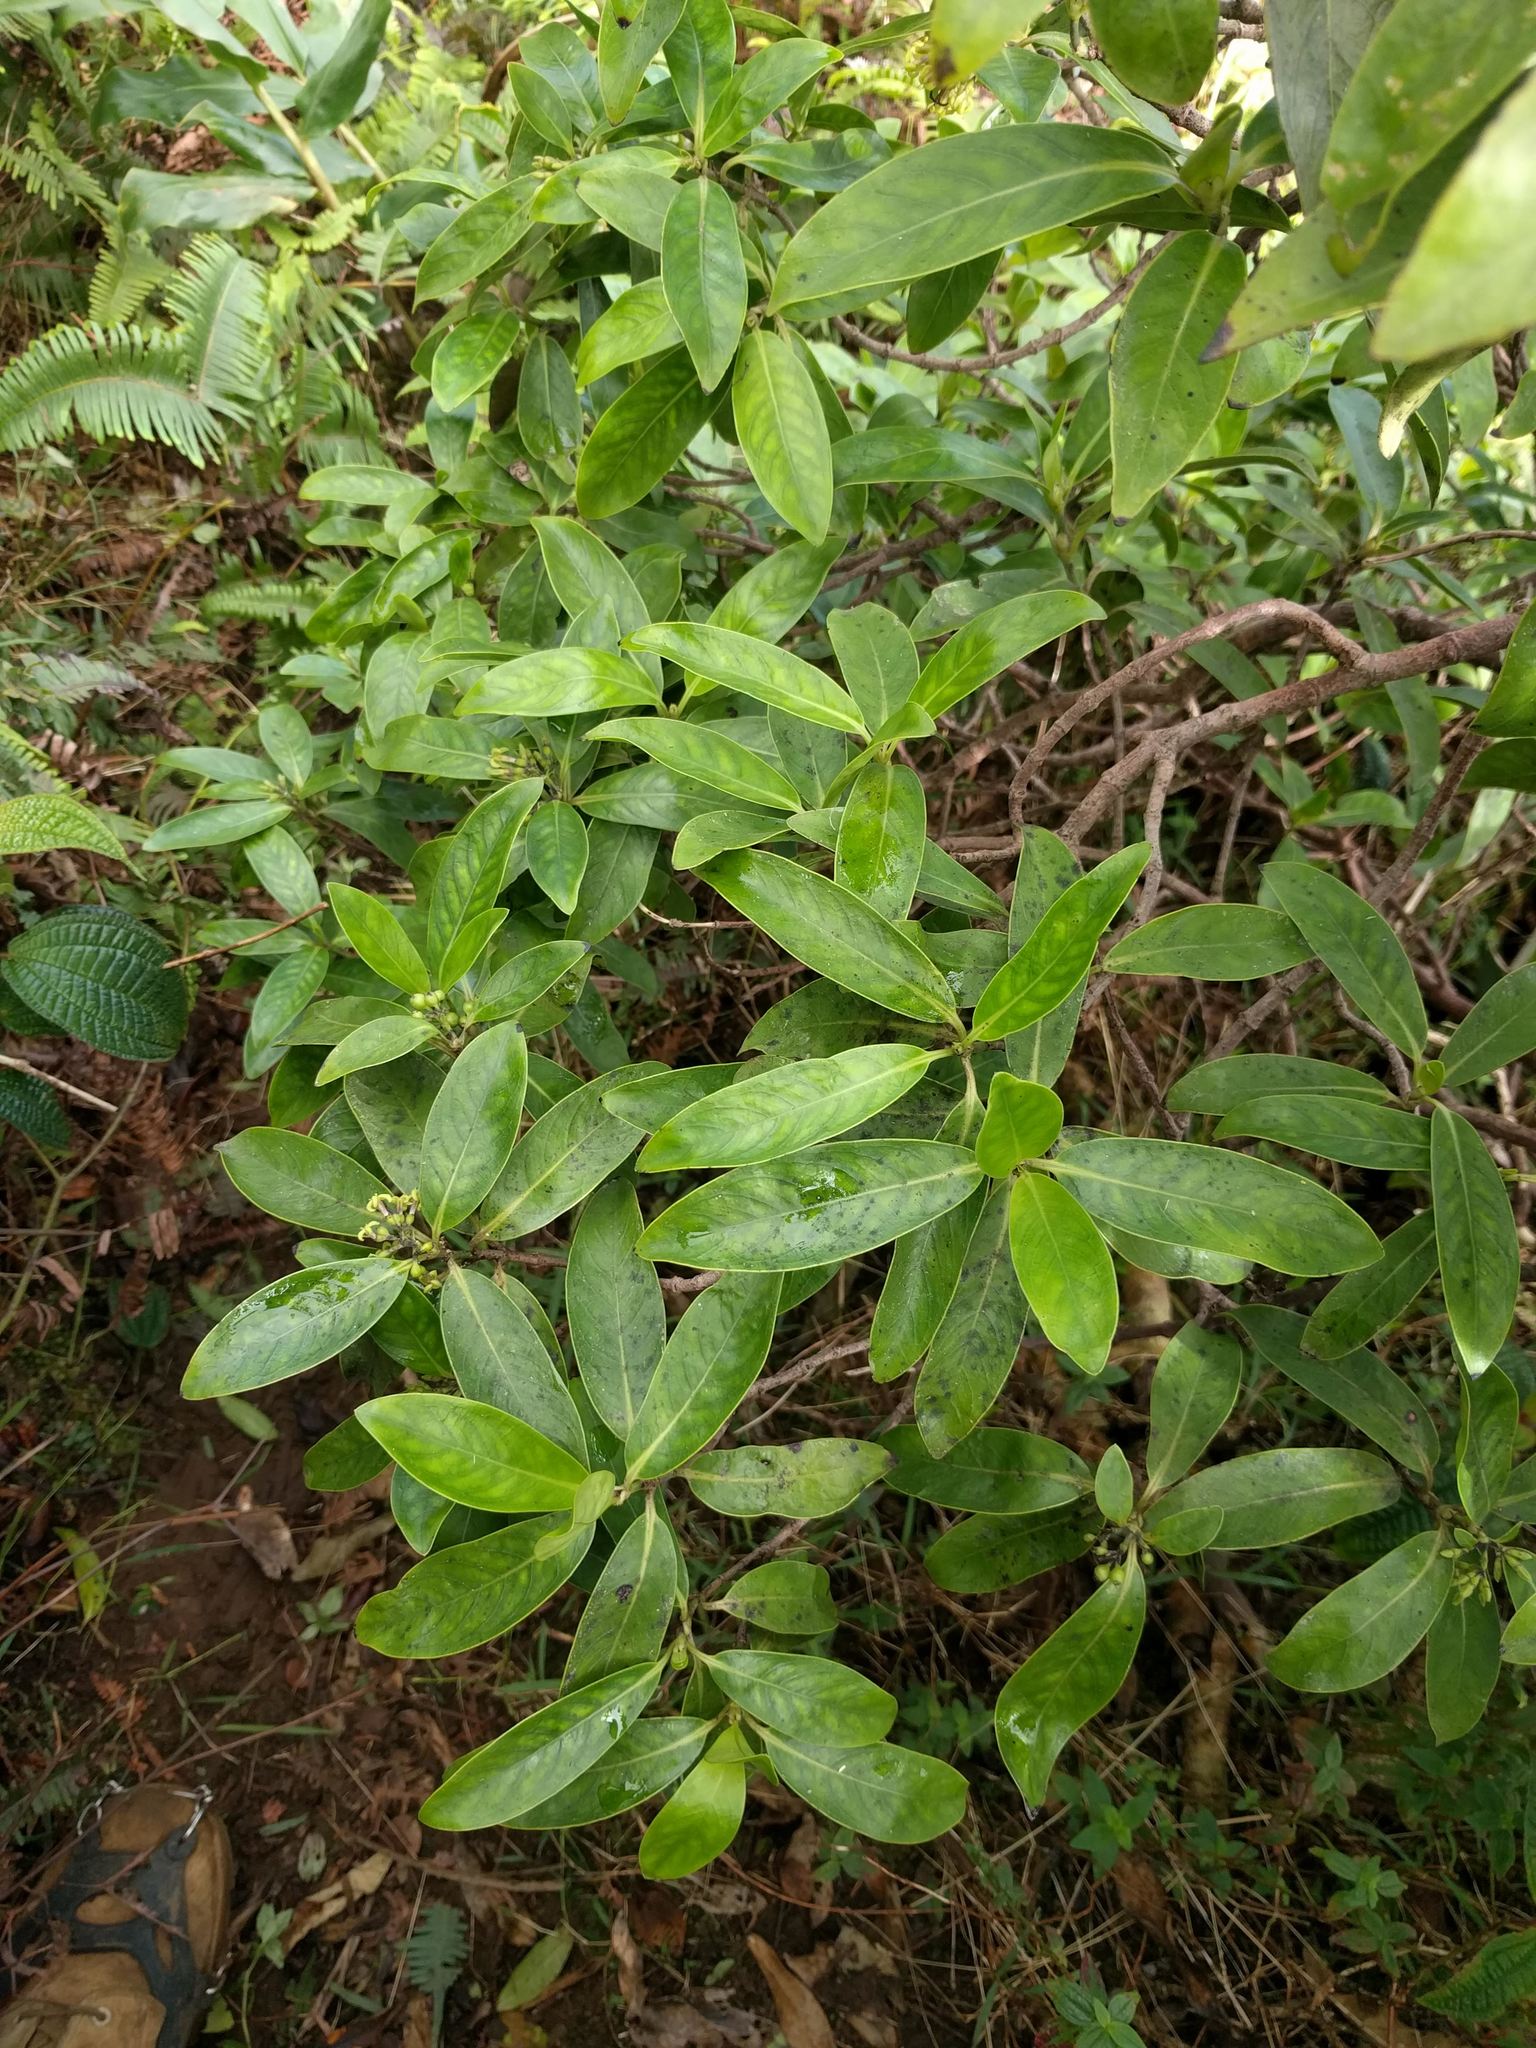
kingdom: Plantae
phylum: Tracheophyta
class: Magnoliopsida
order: Gentianales
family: Rubiaceae
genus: Kadua
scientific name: Kadua affinis
